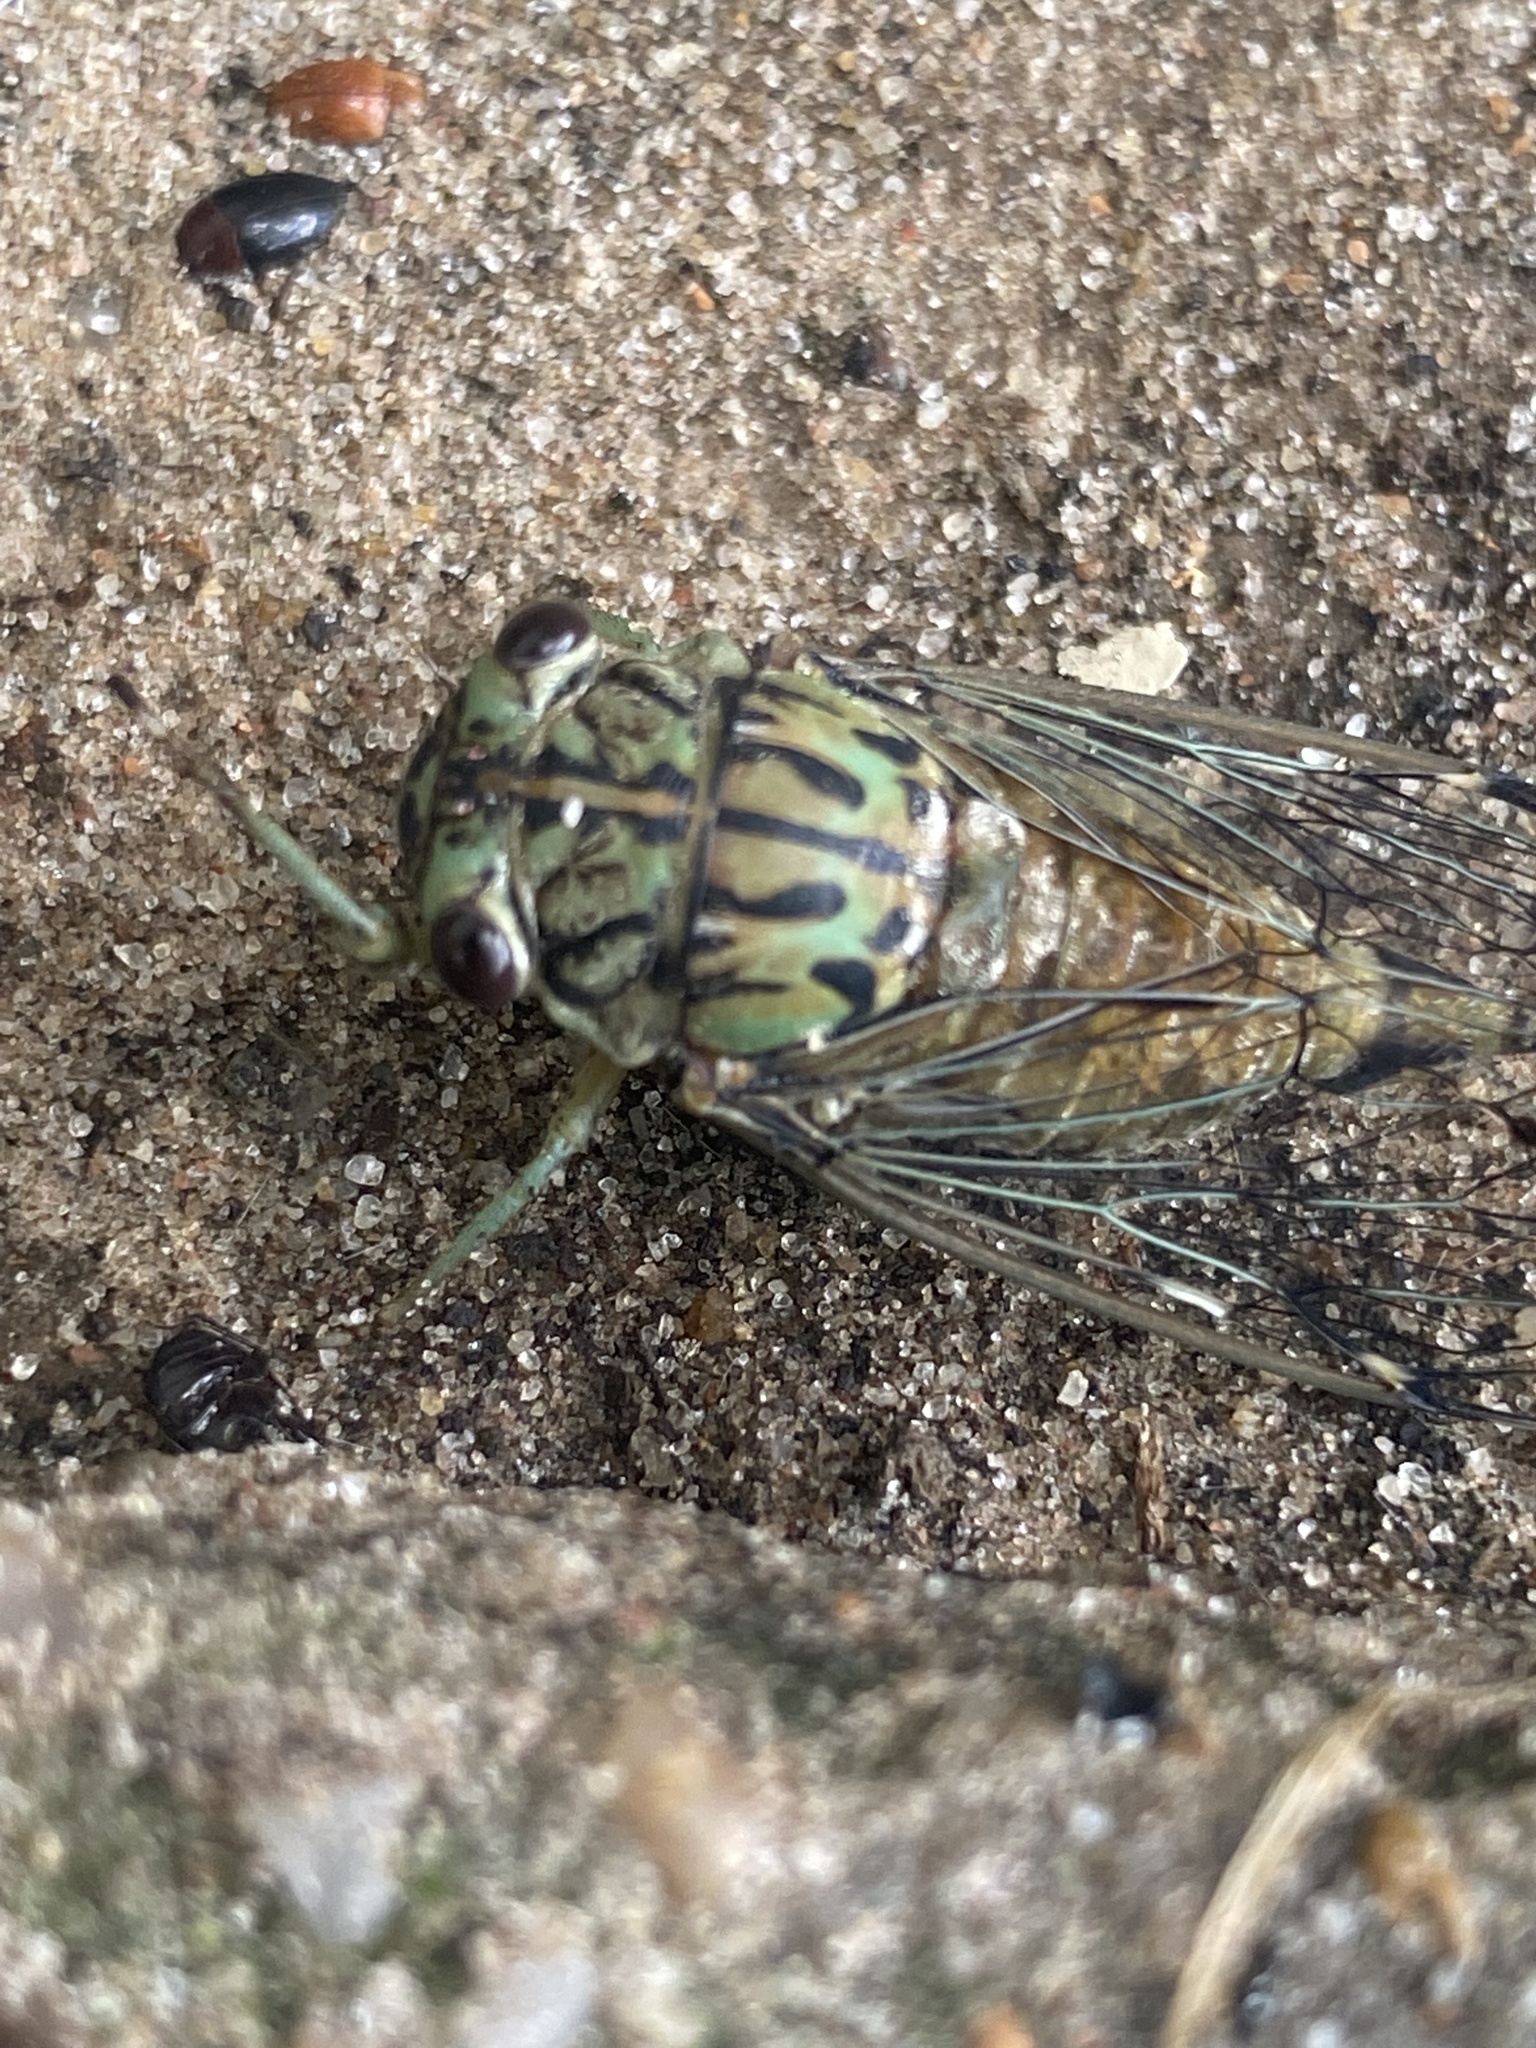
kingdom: Animalia
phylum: Arthropoda
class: Insecta
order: Hemiptera
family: Cicadidae
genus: Neocicada
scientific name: Neocicada hieroglyphica
